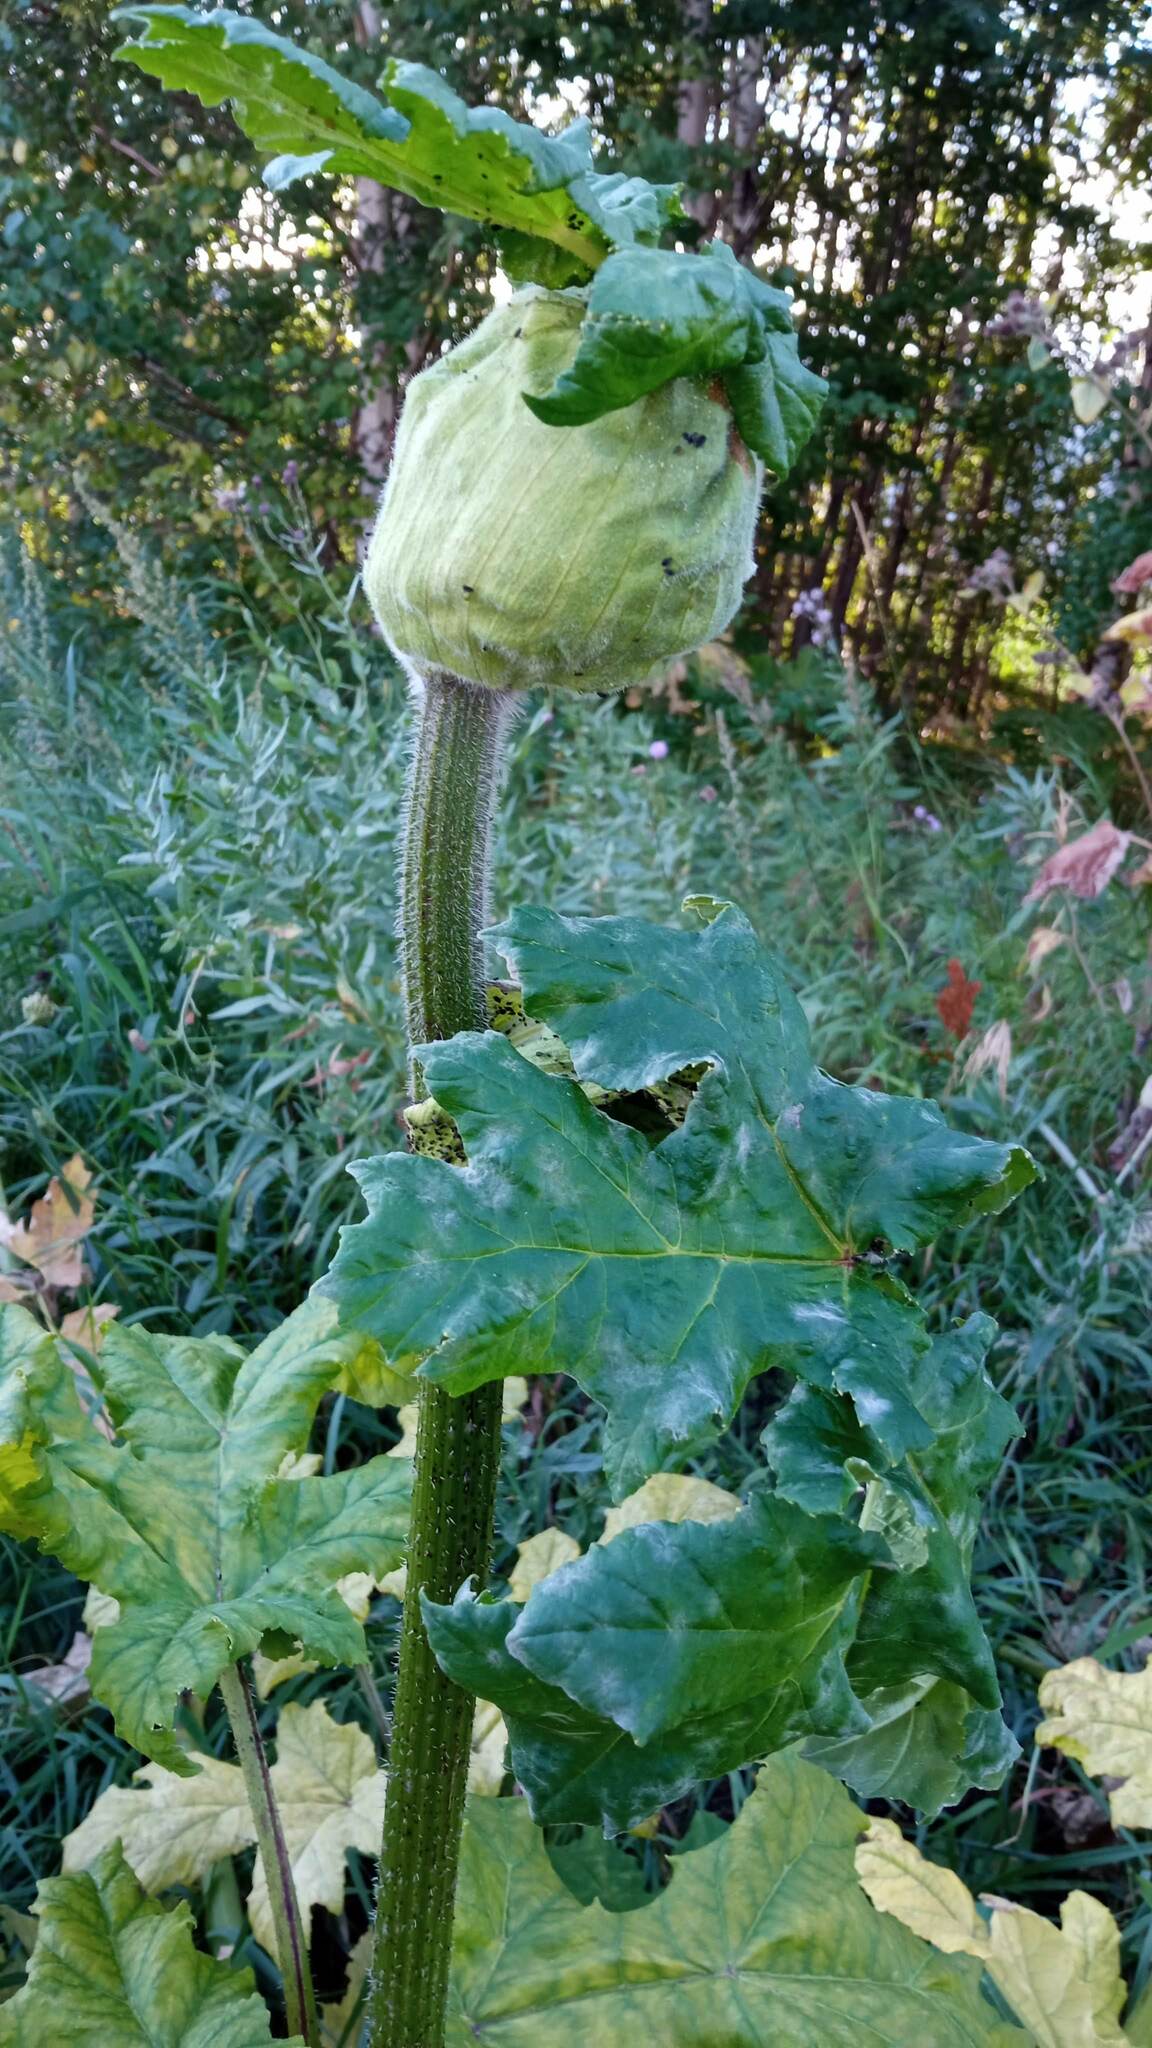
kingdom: Plantae
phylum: Tracheophyta
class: Magnoliopsida
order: Apiales
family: Apiaceae
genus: Heracleum
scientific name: Heracleum sosnowskyi
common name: Sosnowsky's hogweed
